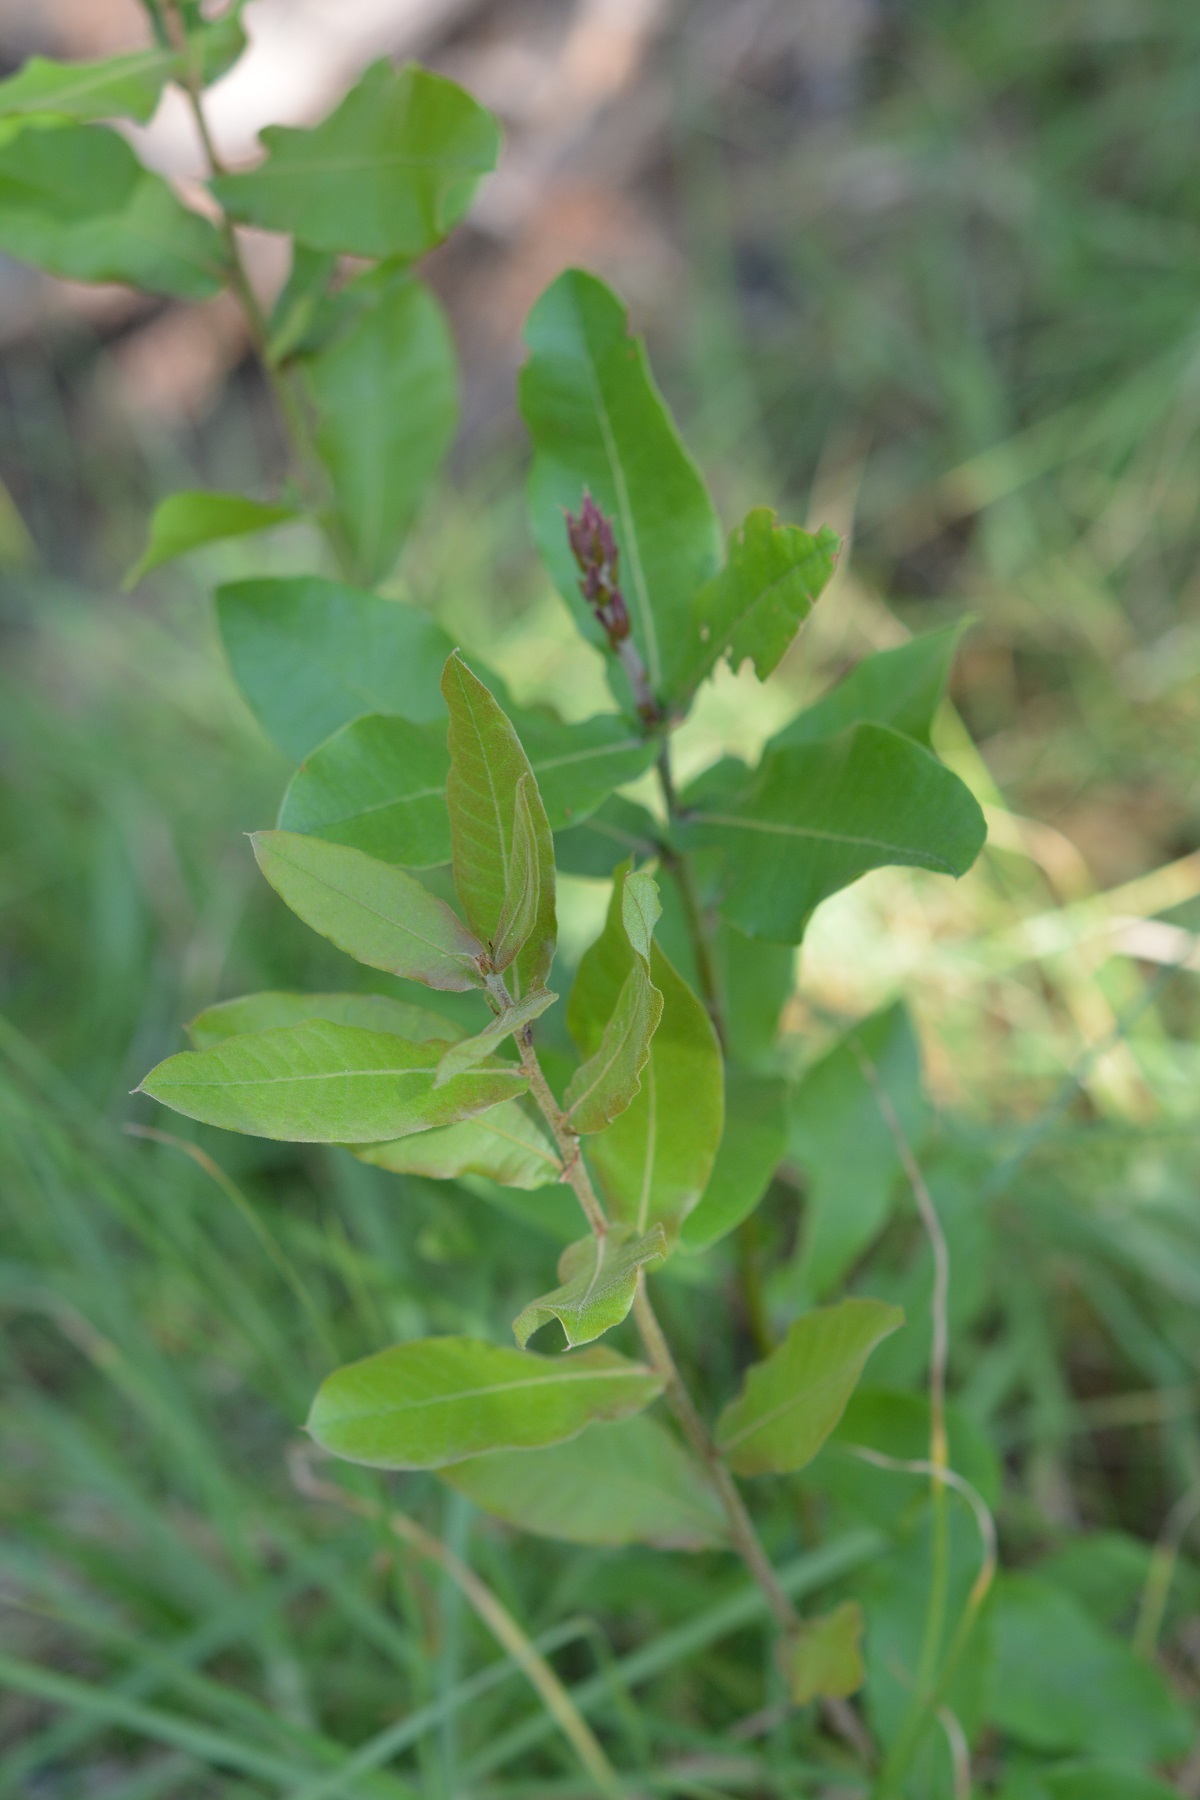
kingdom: Plantae
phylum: Tracheophyta
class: Magnoliopsida
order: Fagales
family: Fagaceae
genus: Quercus
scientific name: Quercus crispipilis
